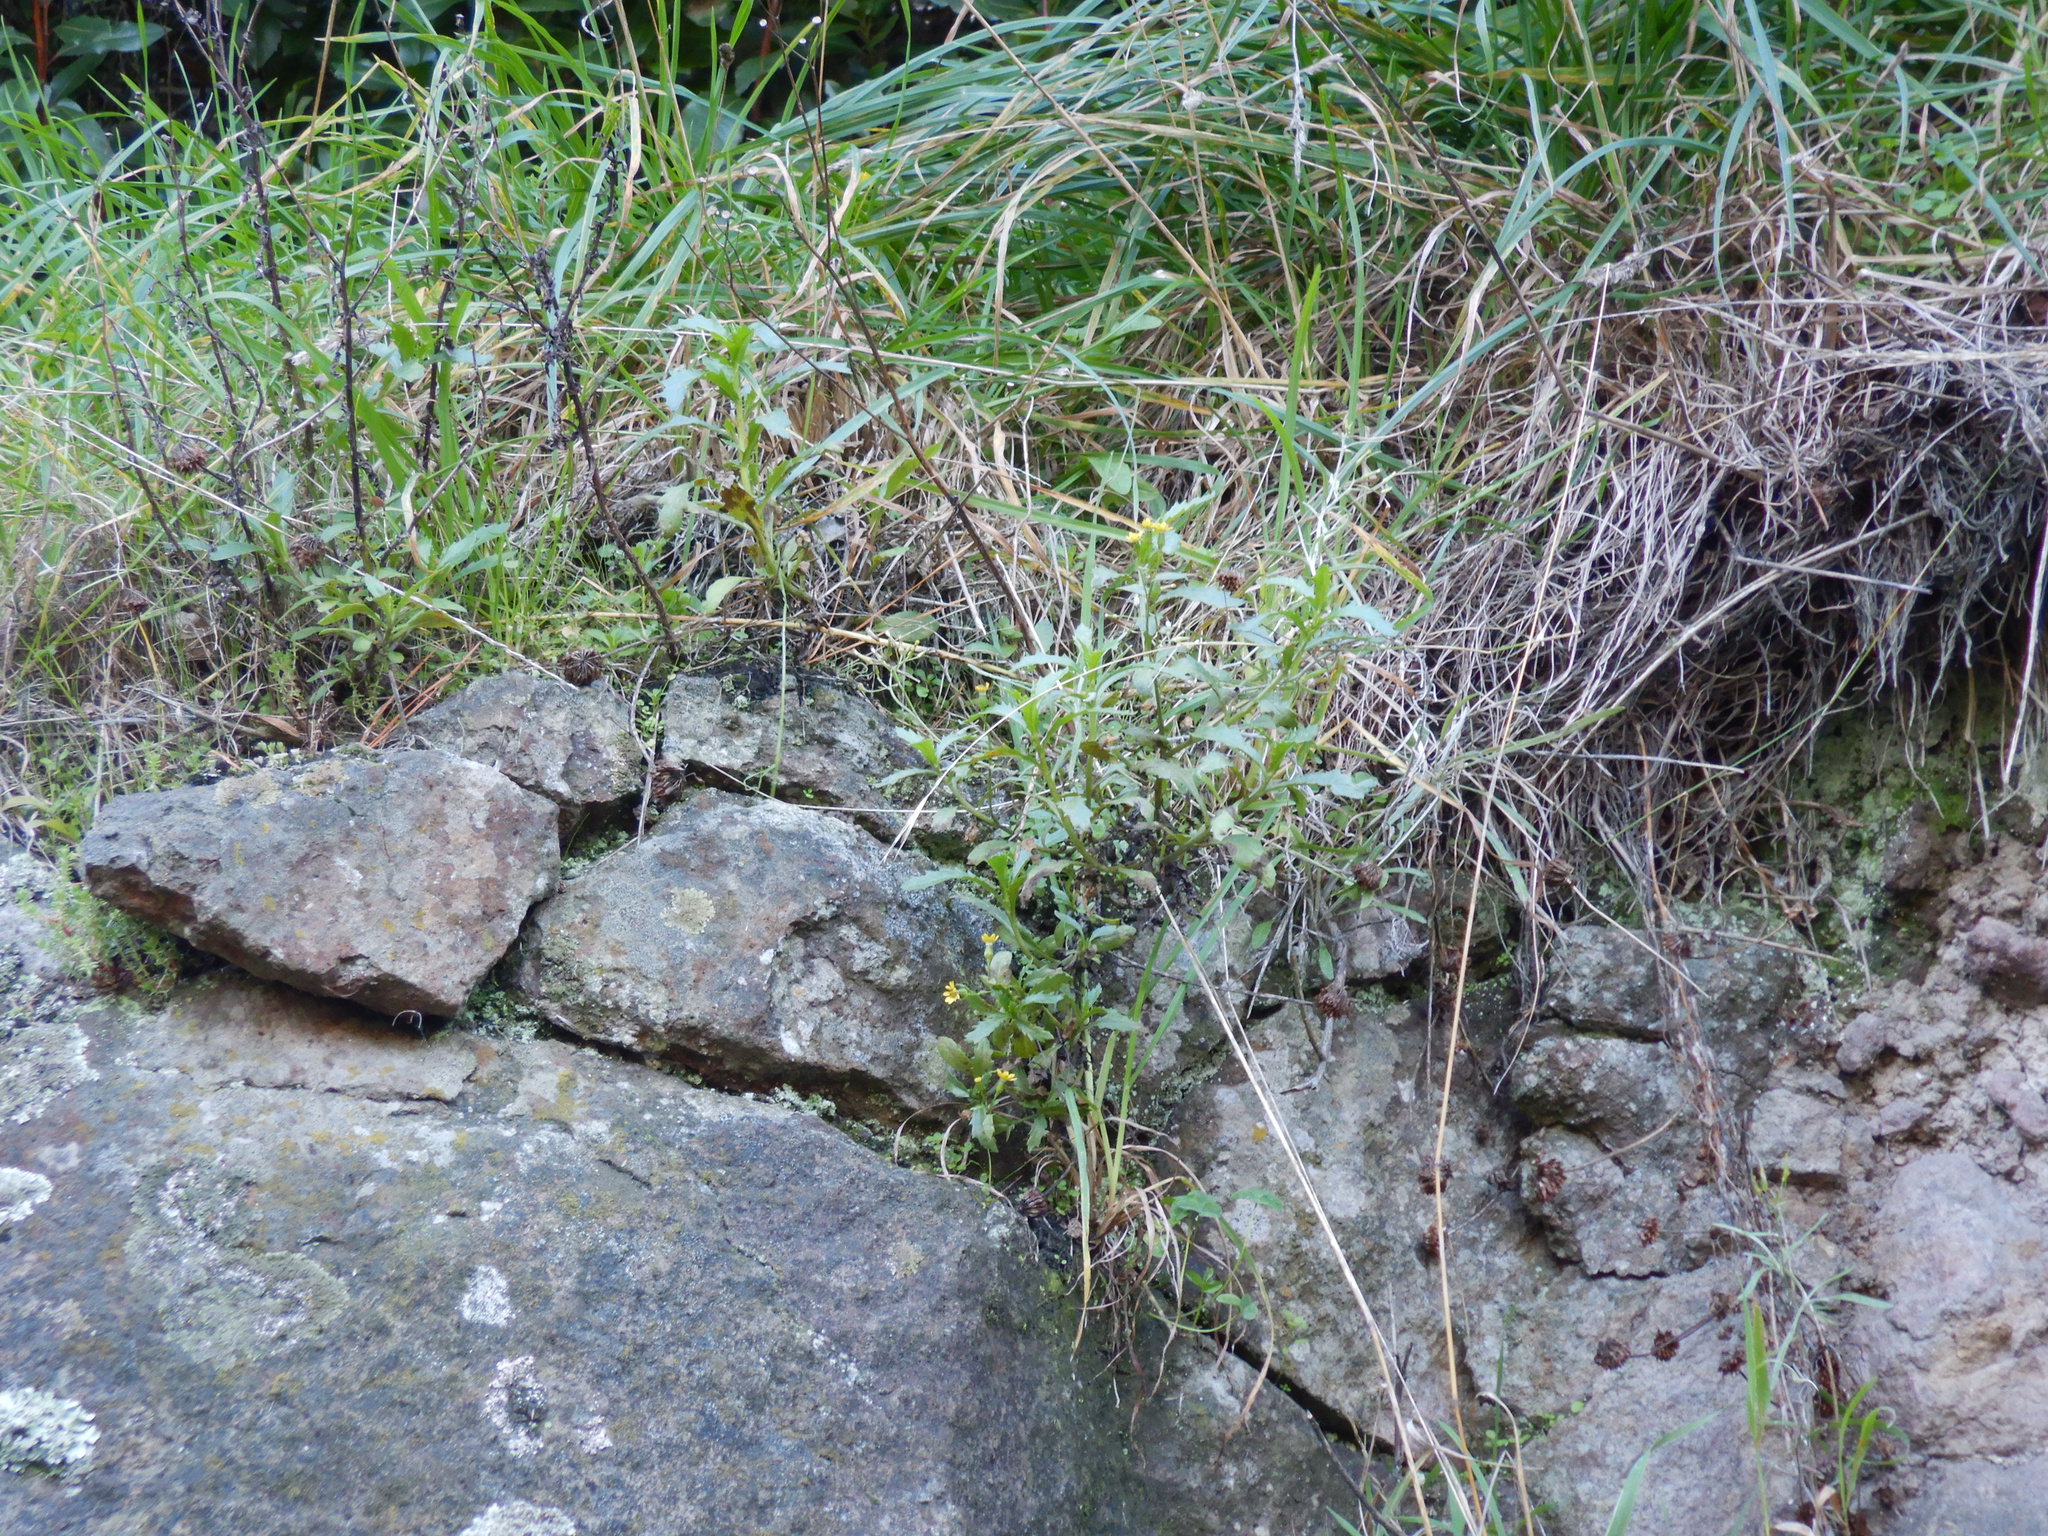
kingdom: Plantae
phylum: Tracheophyta
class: Magnoliopsida
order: Asterales
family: Asteraceae
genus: Senecio
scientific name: Senecio matatini
